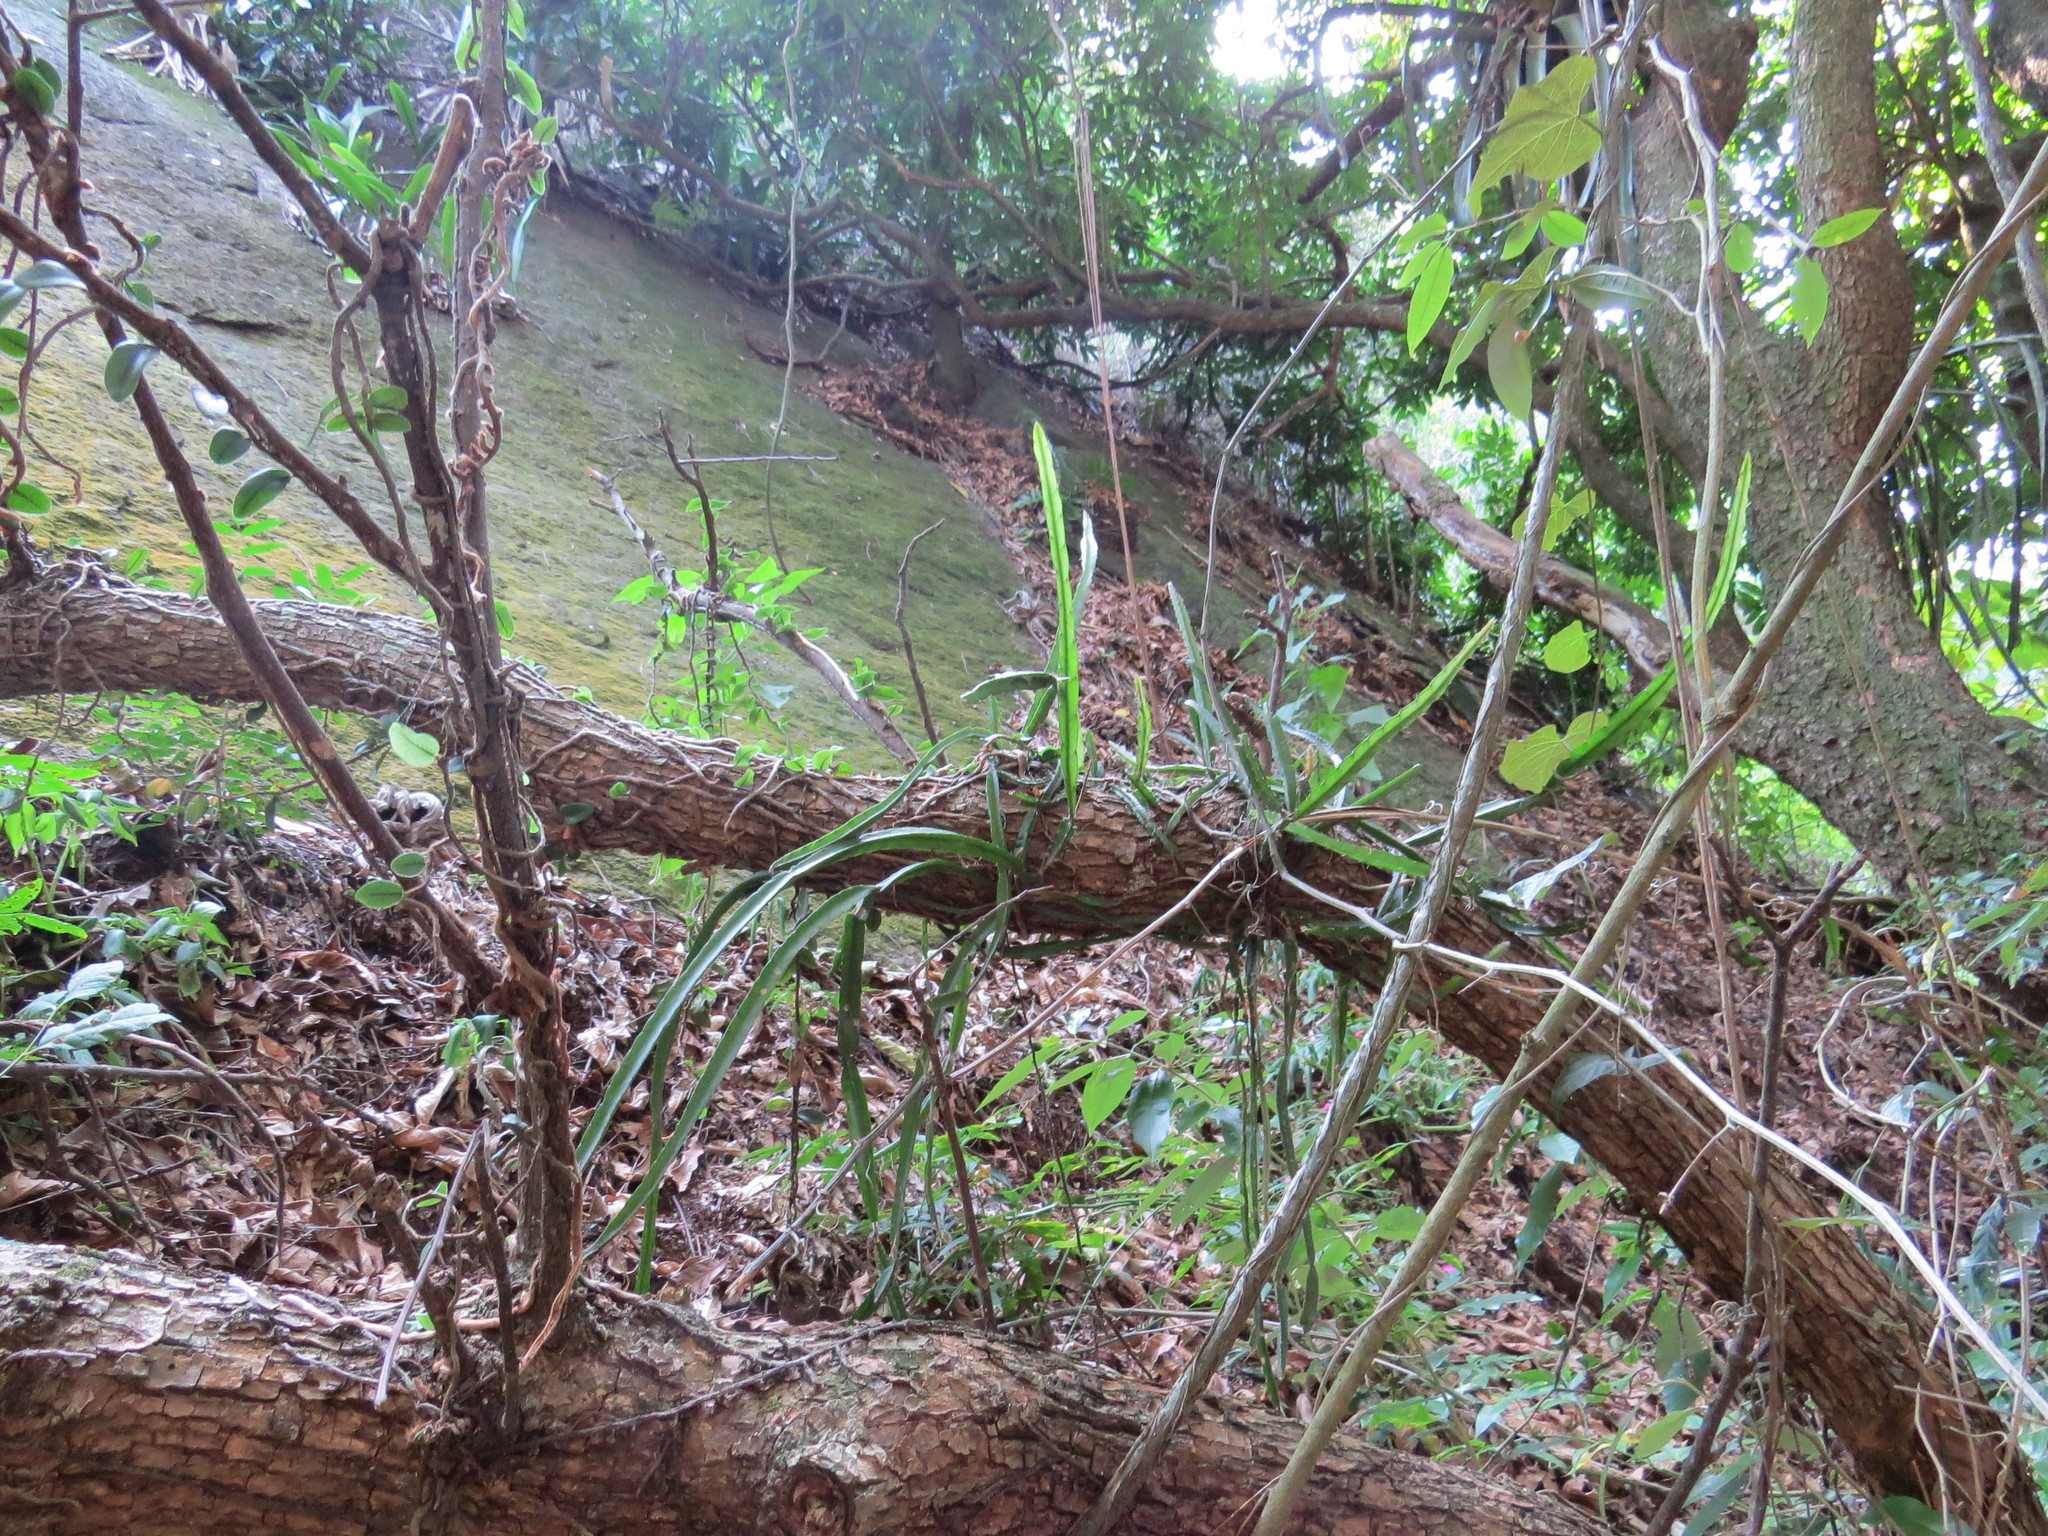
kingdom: Plantae
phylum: Tracheophyta
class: Magnoliopsida
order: Caryophyllales
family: Cactaceae
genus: Lepismium
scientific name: Lepismium cruciforme
